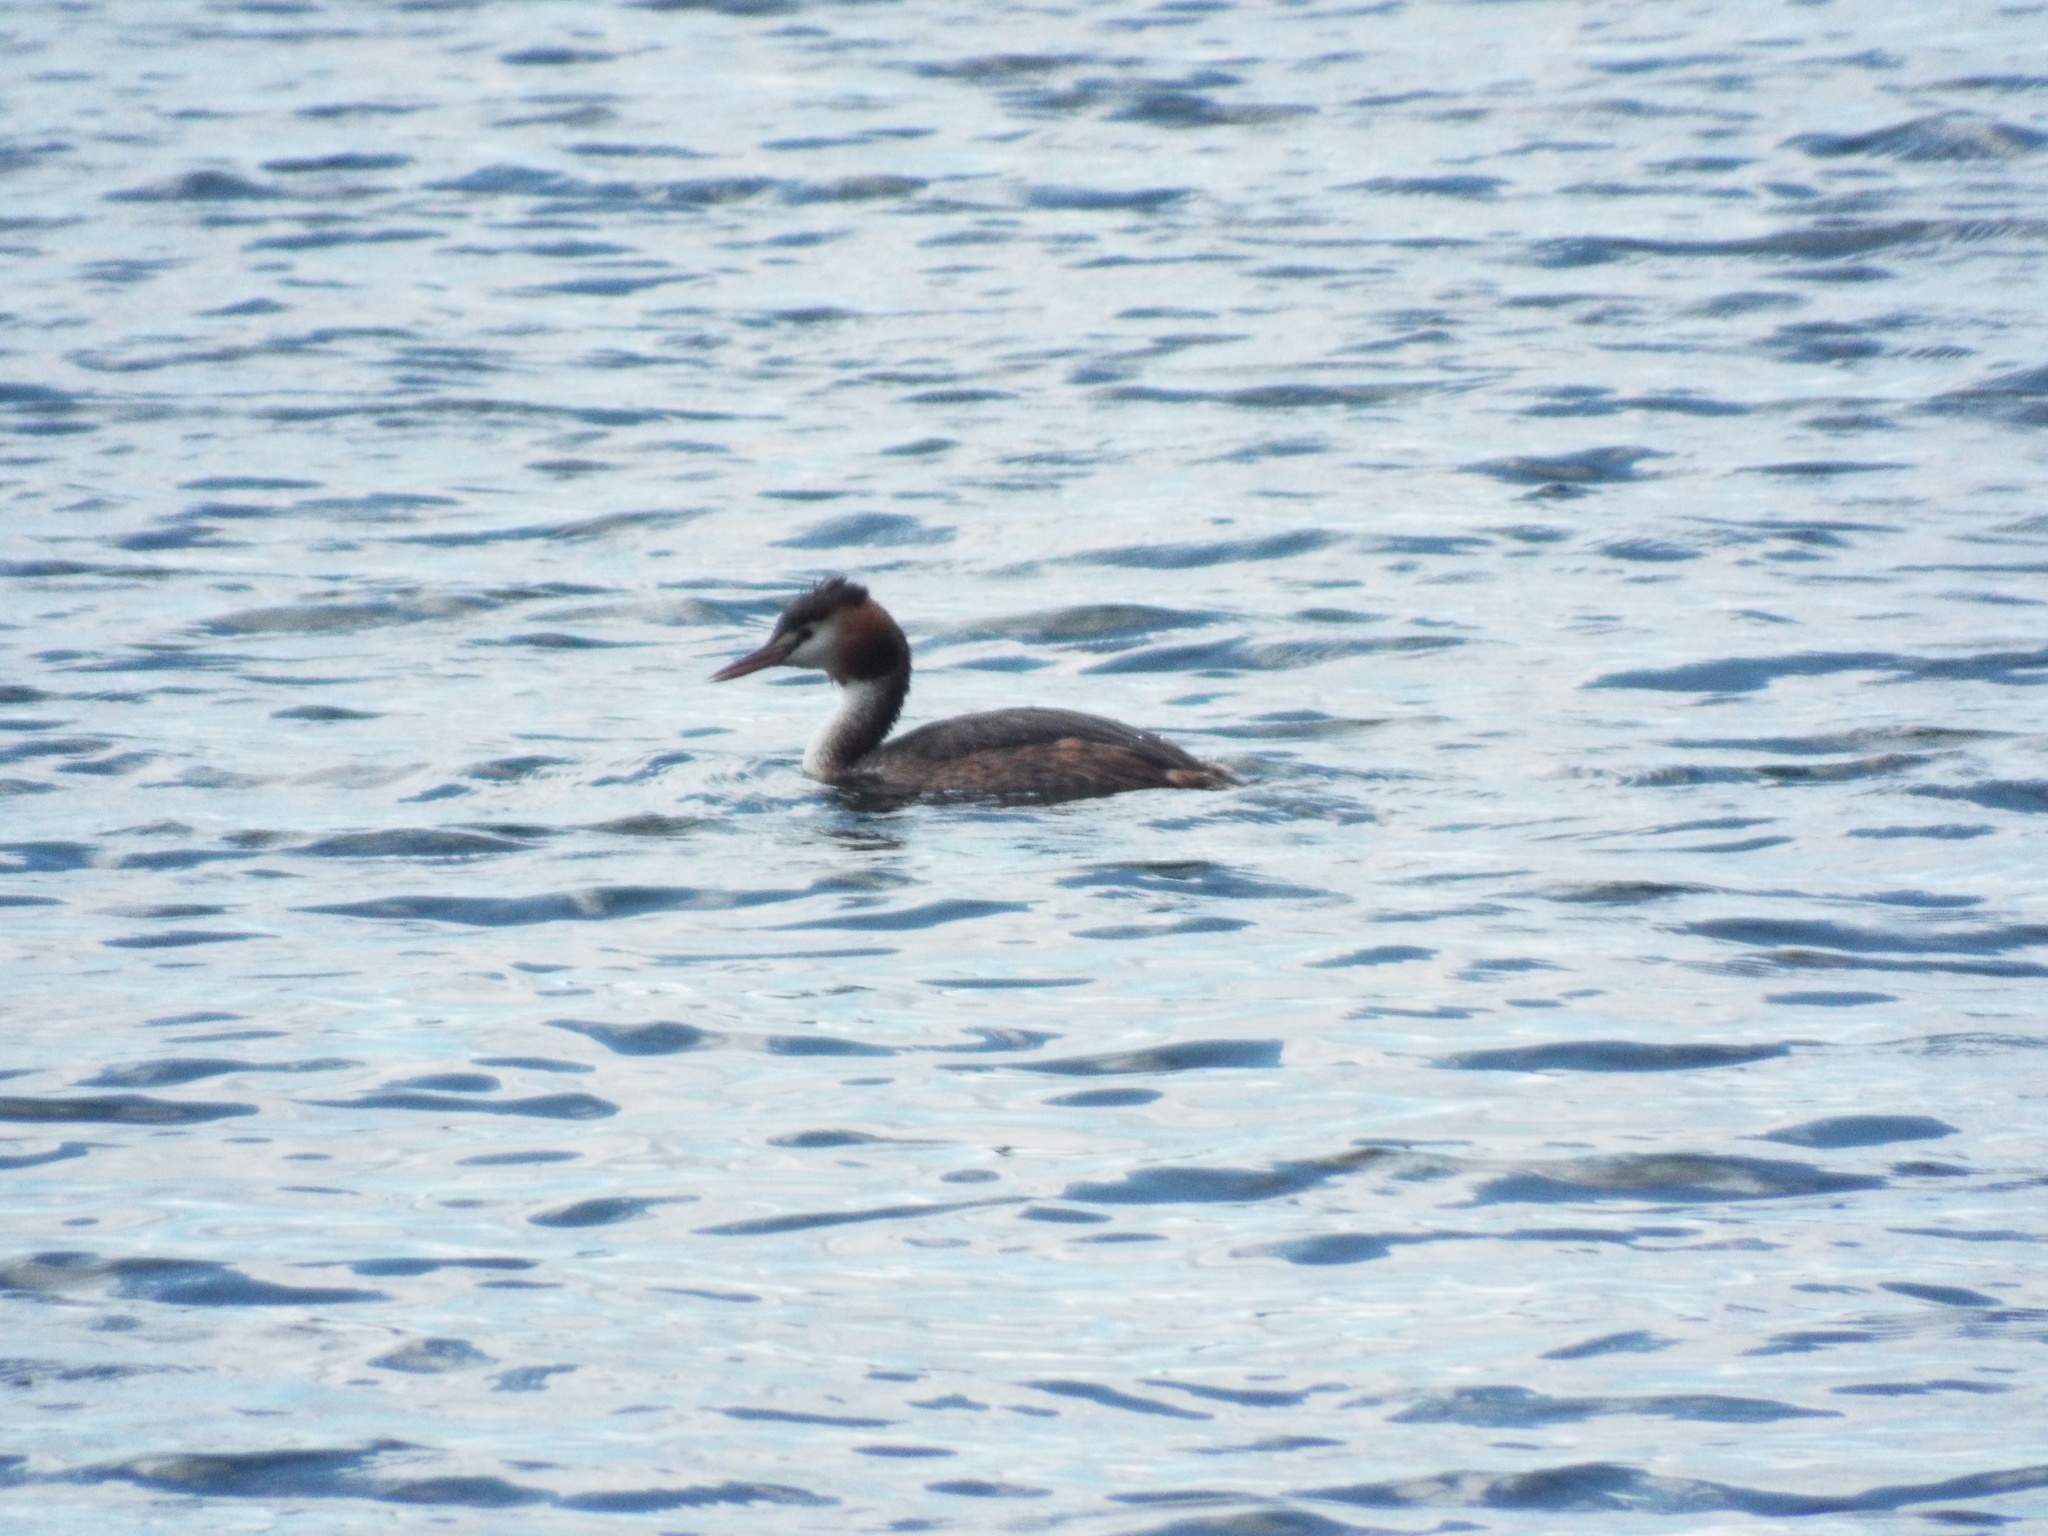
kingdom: Animalia
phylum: Chordata
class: Aves
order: Podicipediformes
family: Podicipedidae
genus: Podiceps
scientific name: Podiceps cristatus
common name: Great crested grebe
